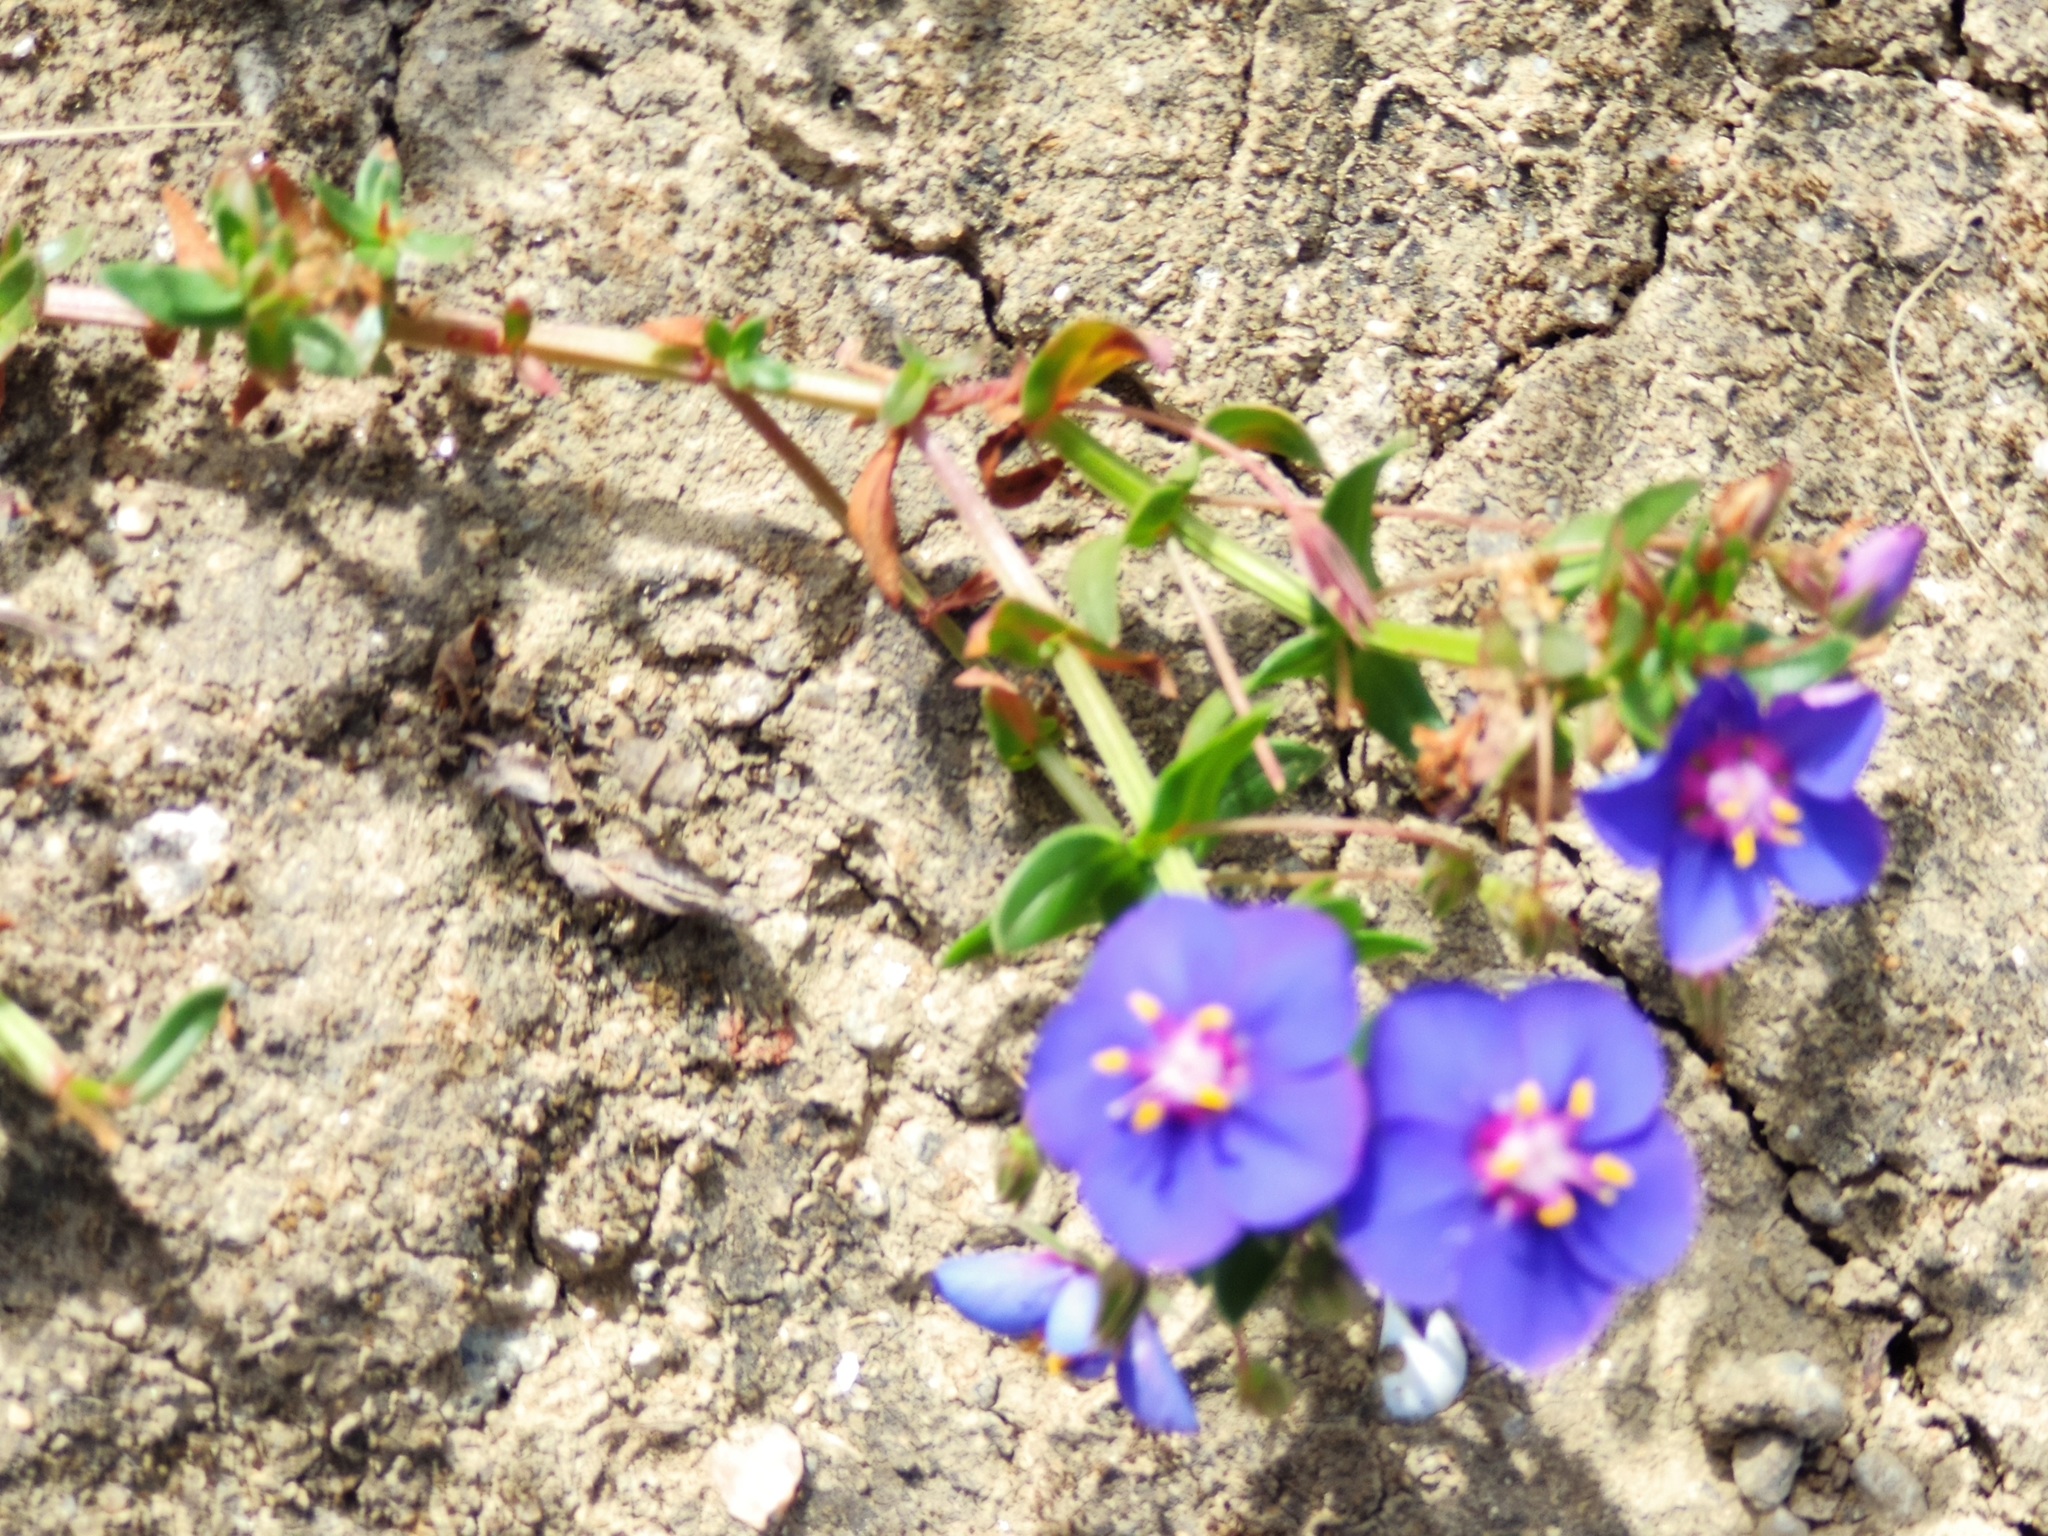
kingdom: Plantae
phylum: Tracheophyta
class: Magnoliopsida
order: Ericales
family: Primulaceae
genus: Lysimachia
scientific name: Lysimachia monelli
